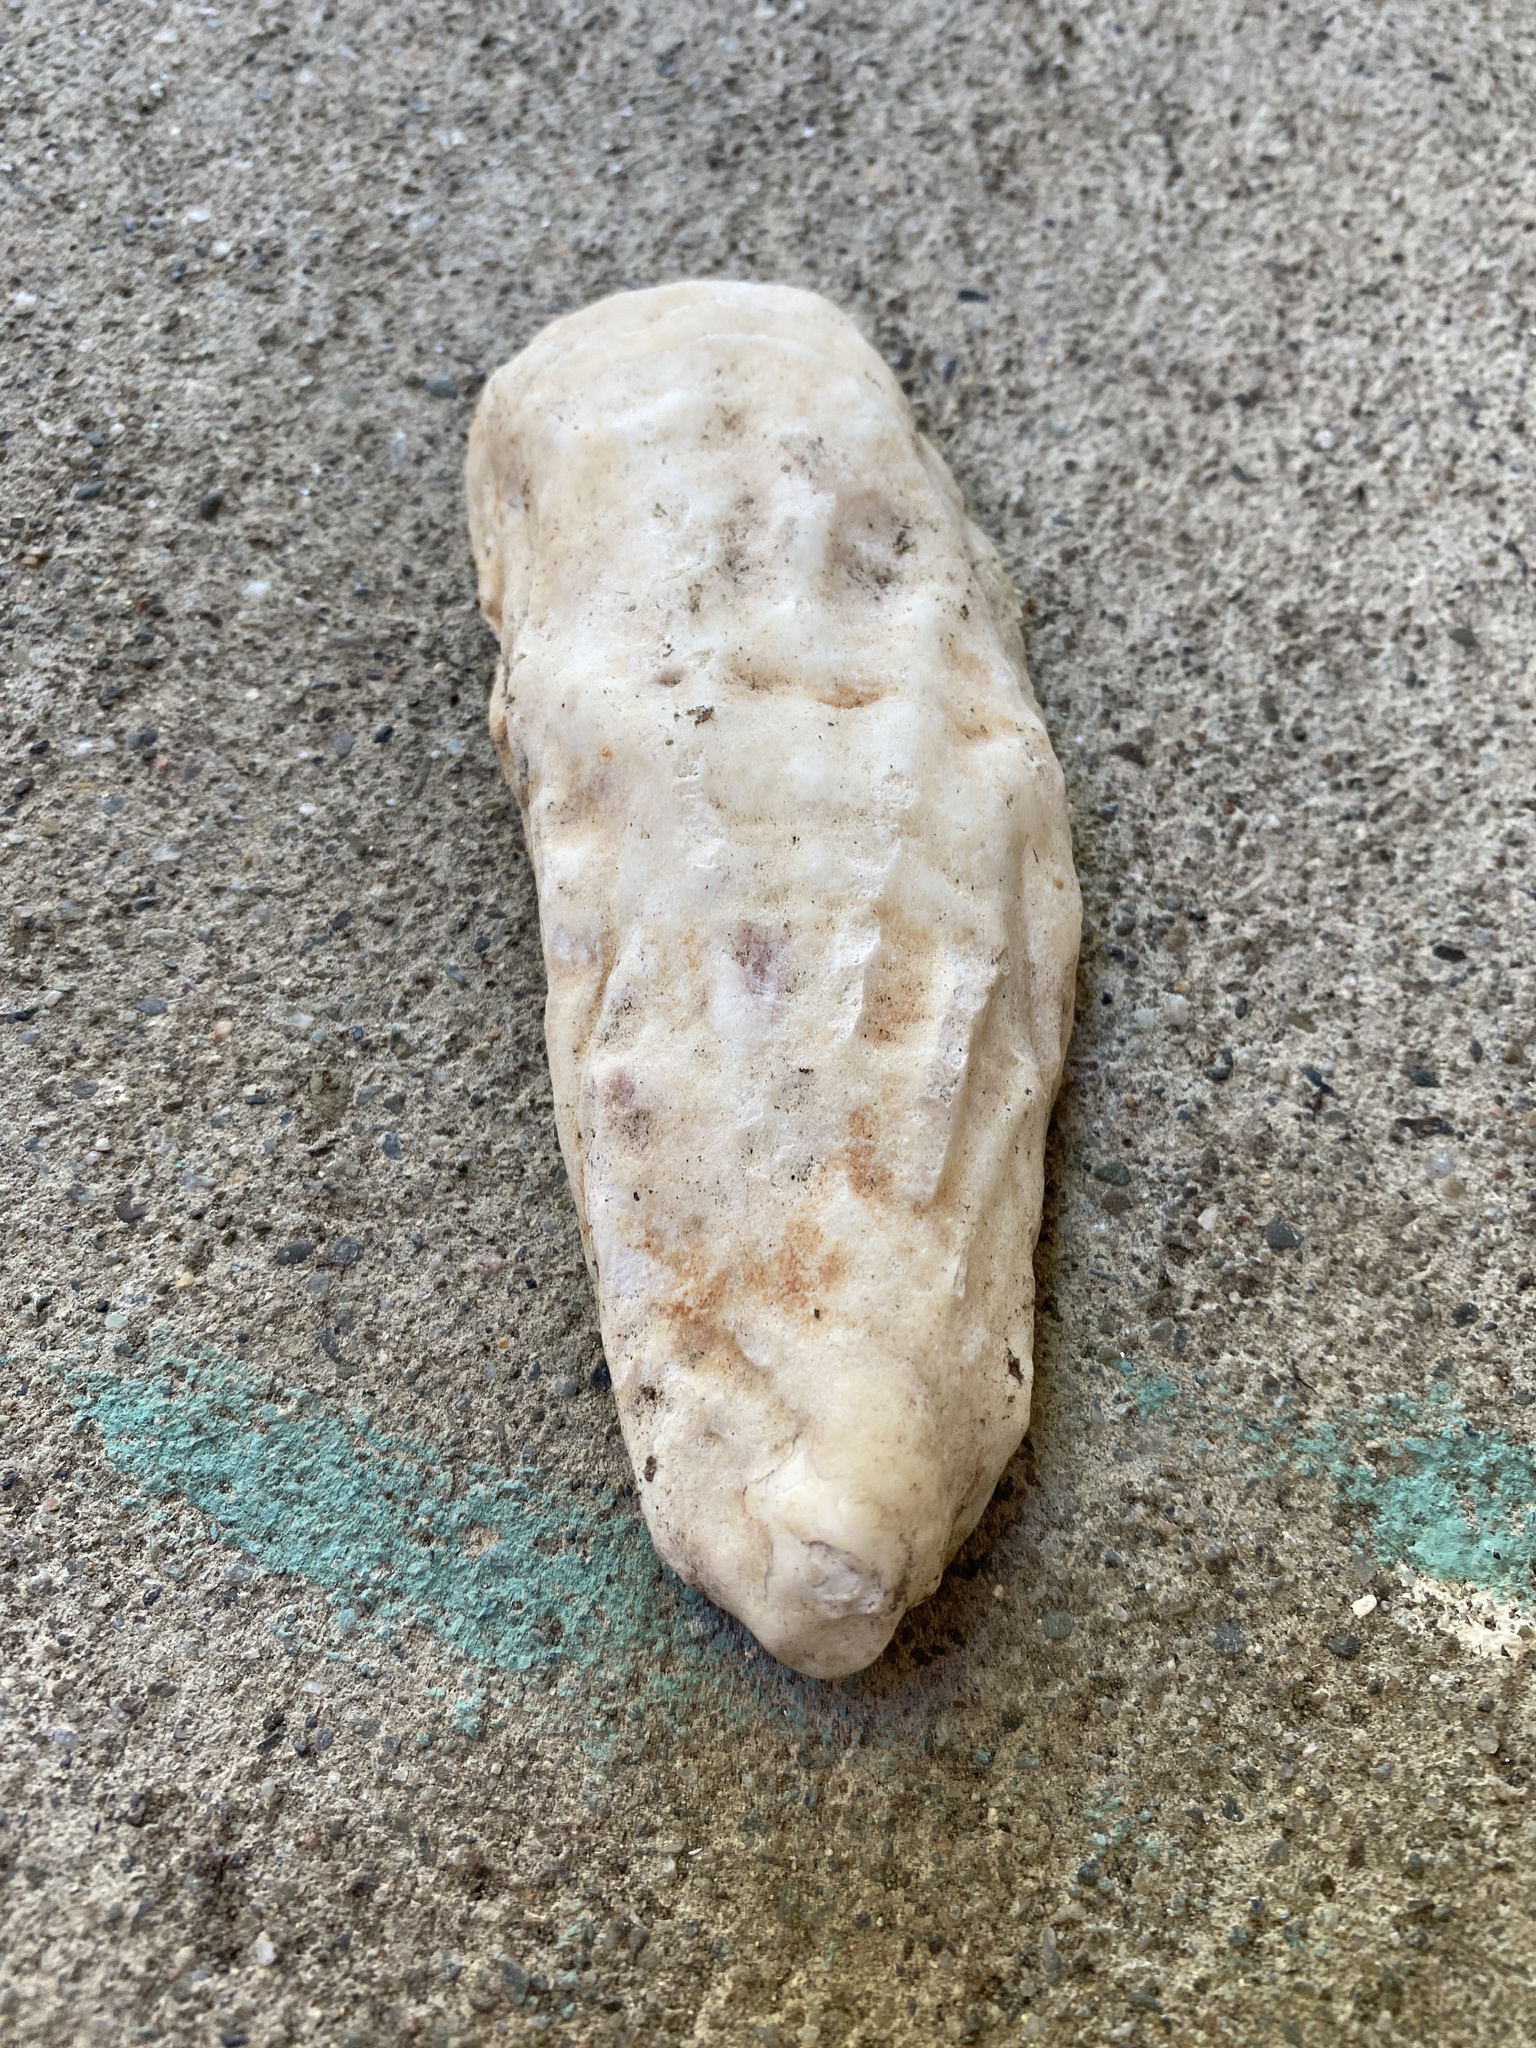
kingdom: Animalia
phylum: Mollusca
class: Bivalvia
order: Ostreida
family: Ostreidae
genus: Magallana
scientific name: Magallana gigas
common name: Pacific oyster
